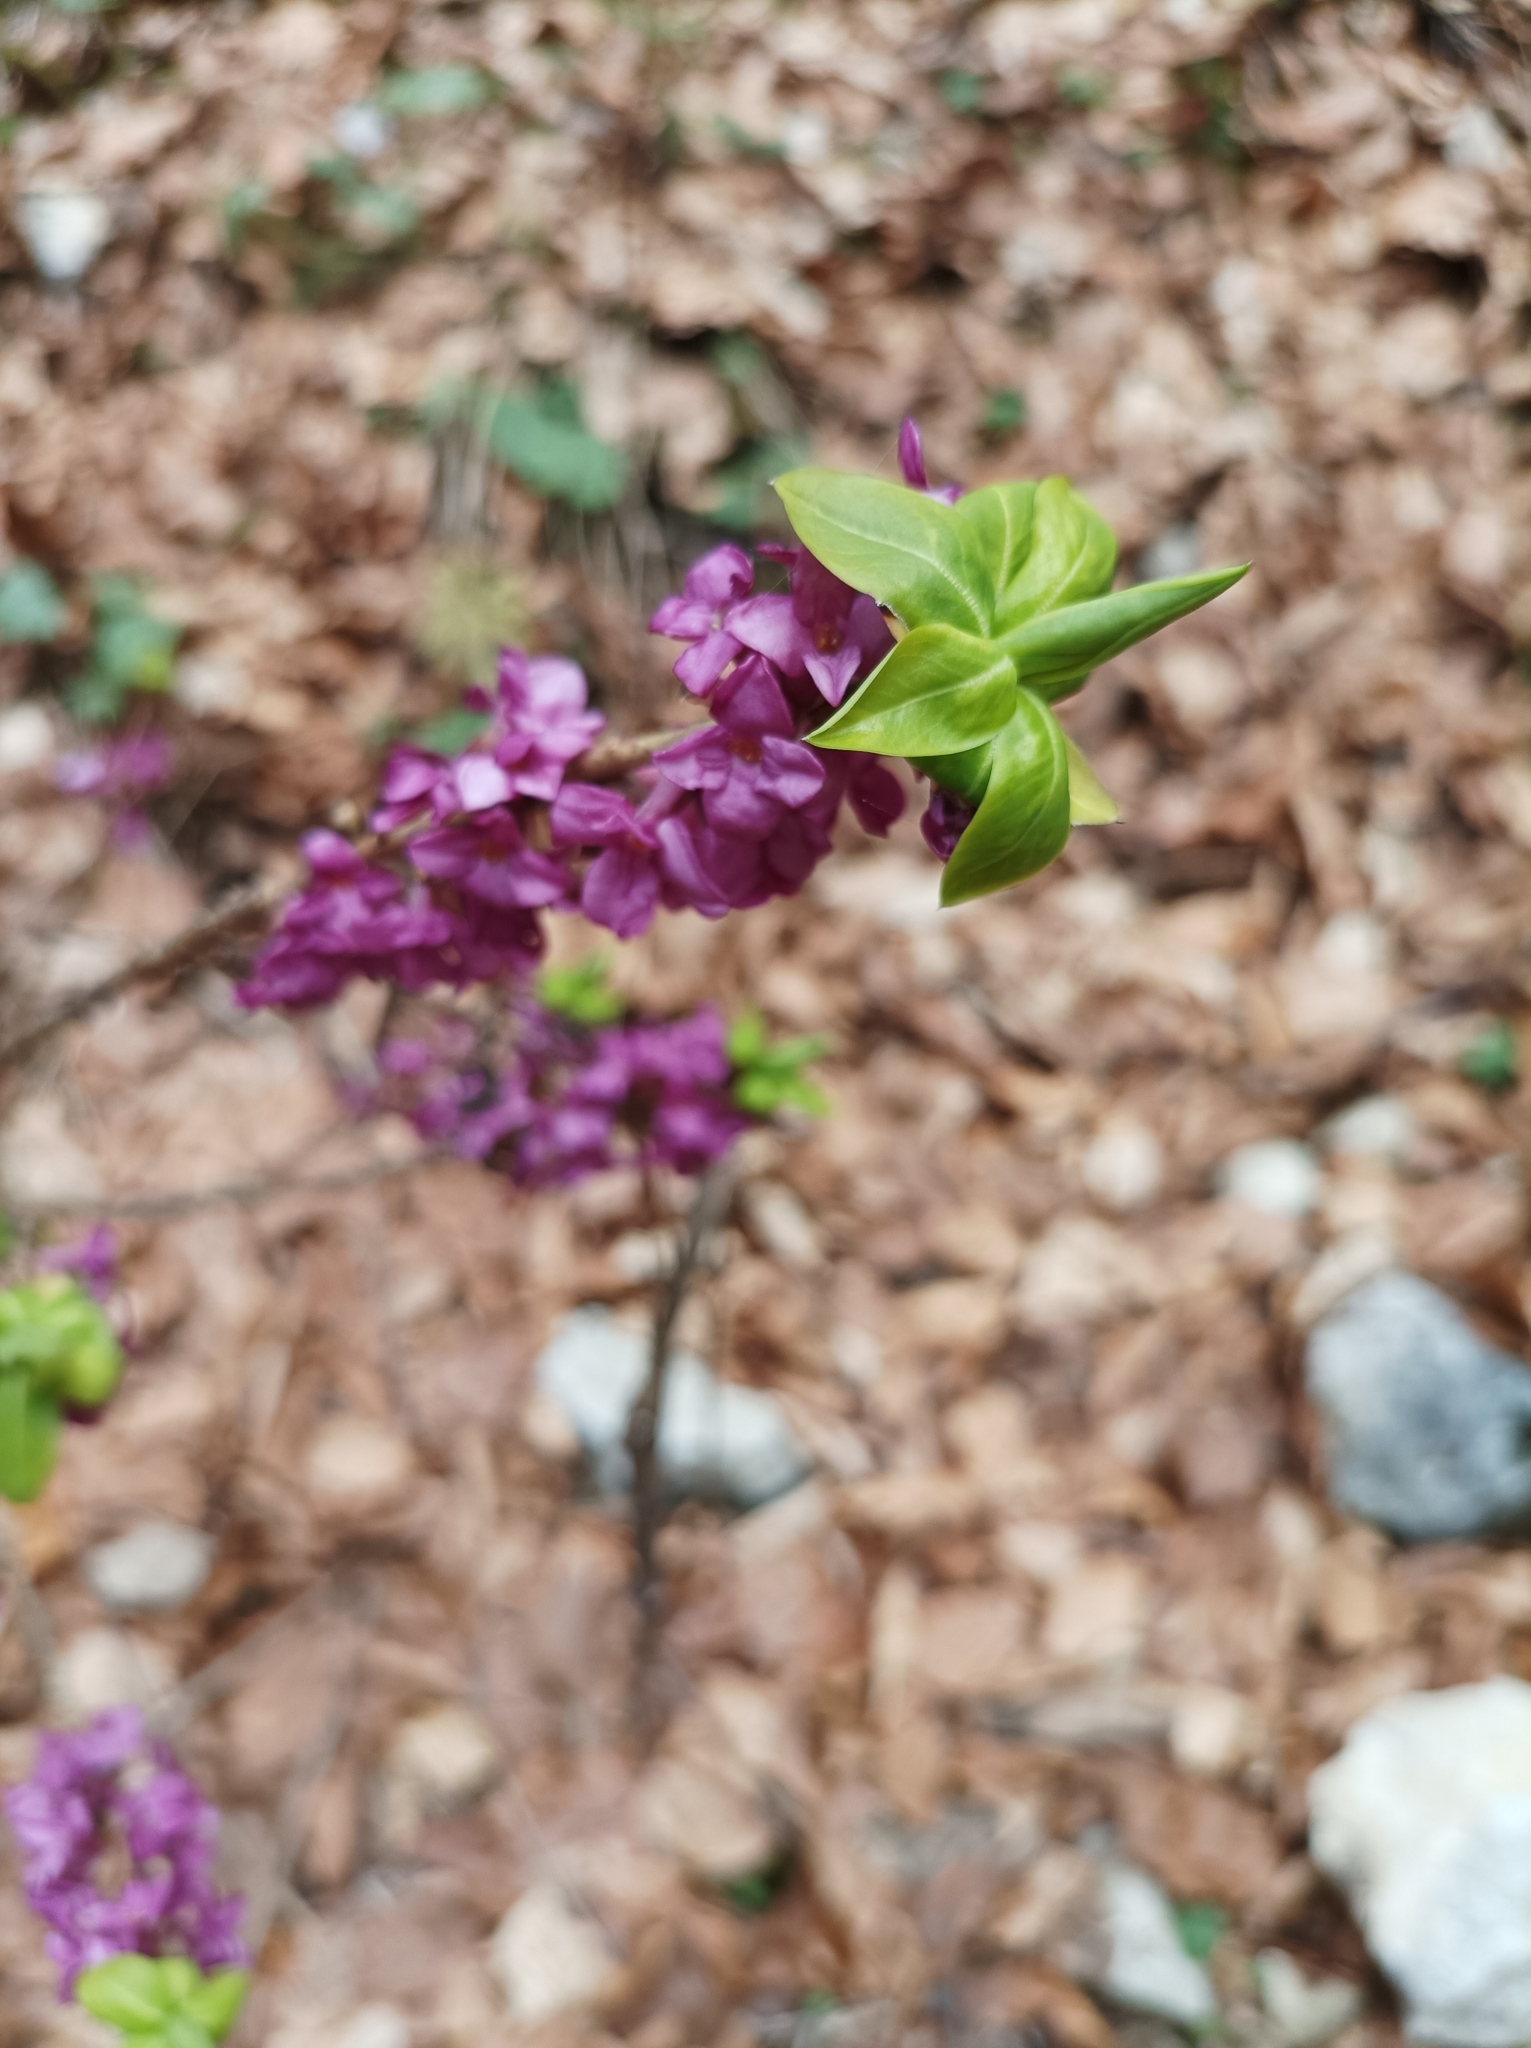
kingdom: Plantae
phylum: Tracheophyta
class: Magnoliopsida
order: Malvales
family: Thymelaeaceae
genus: Daphne
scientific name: Daphne mezereum
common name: Mezereon
